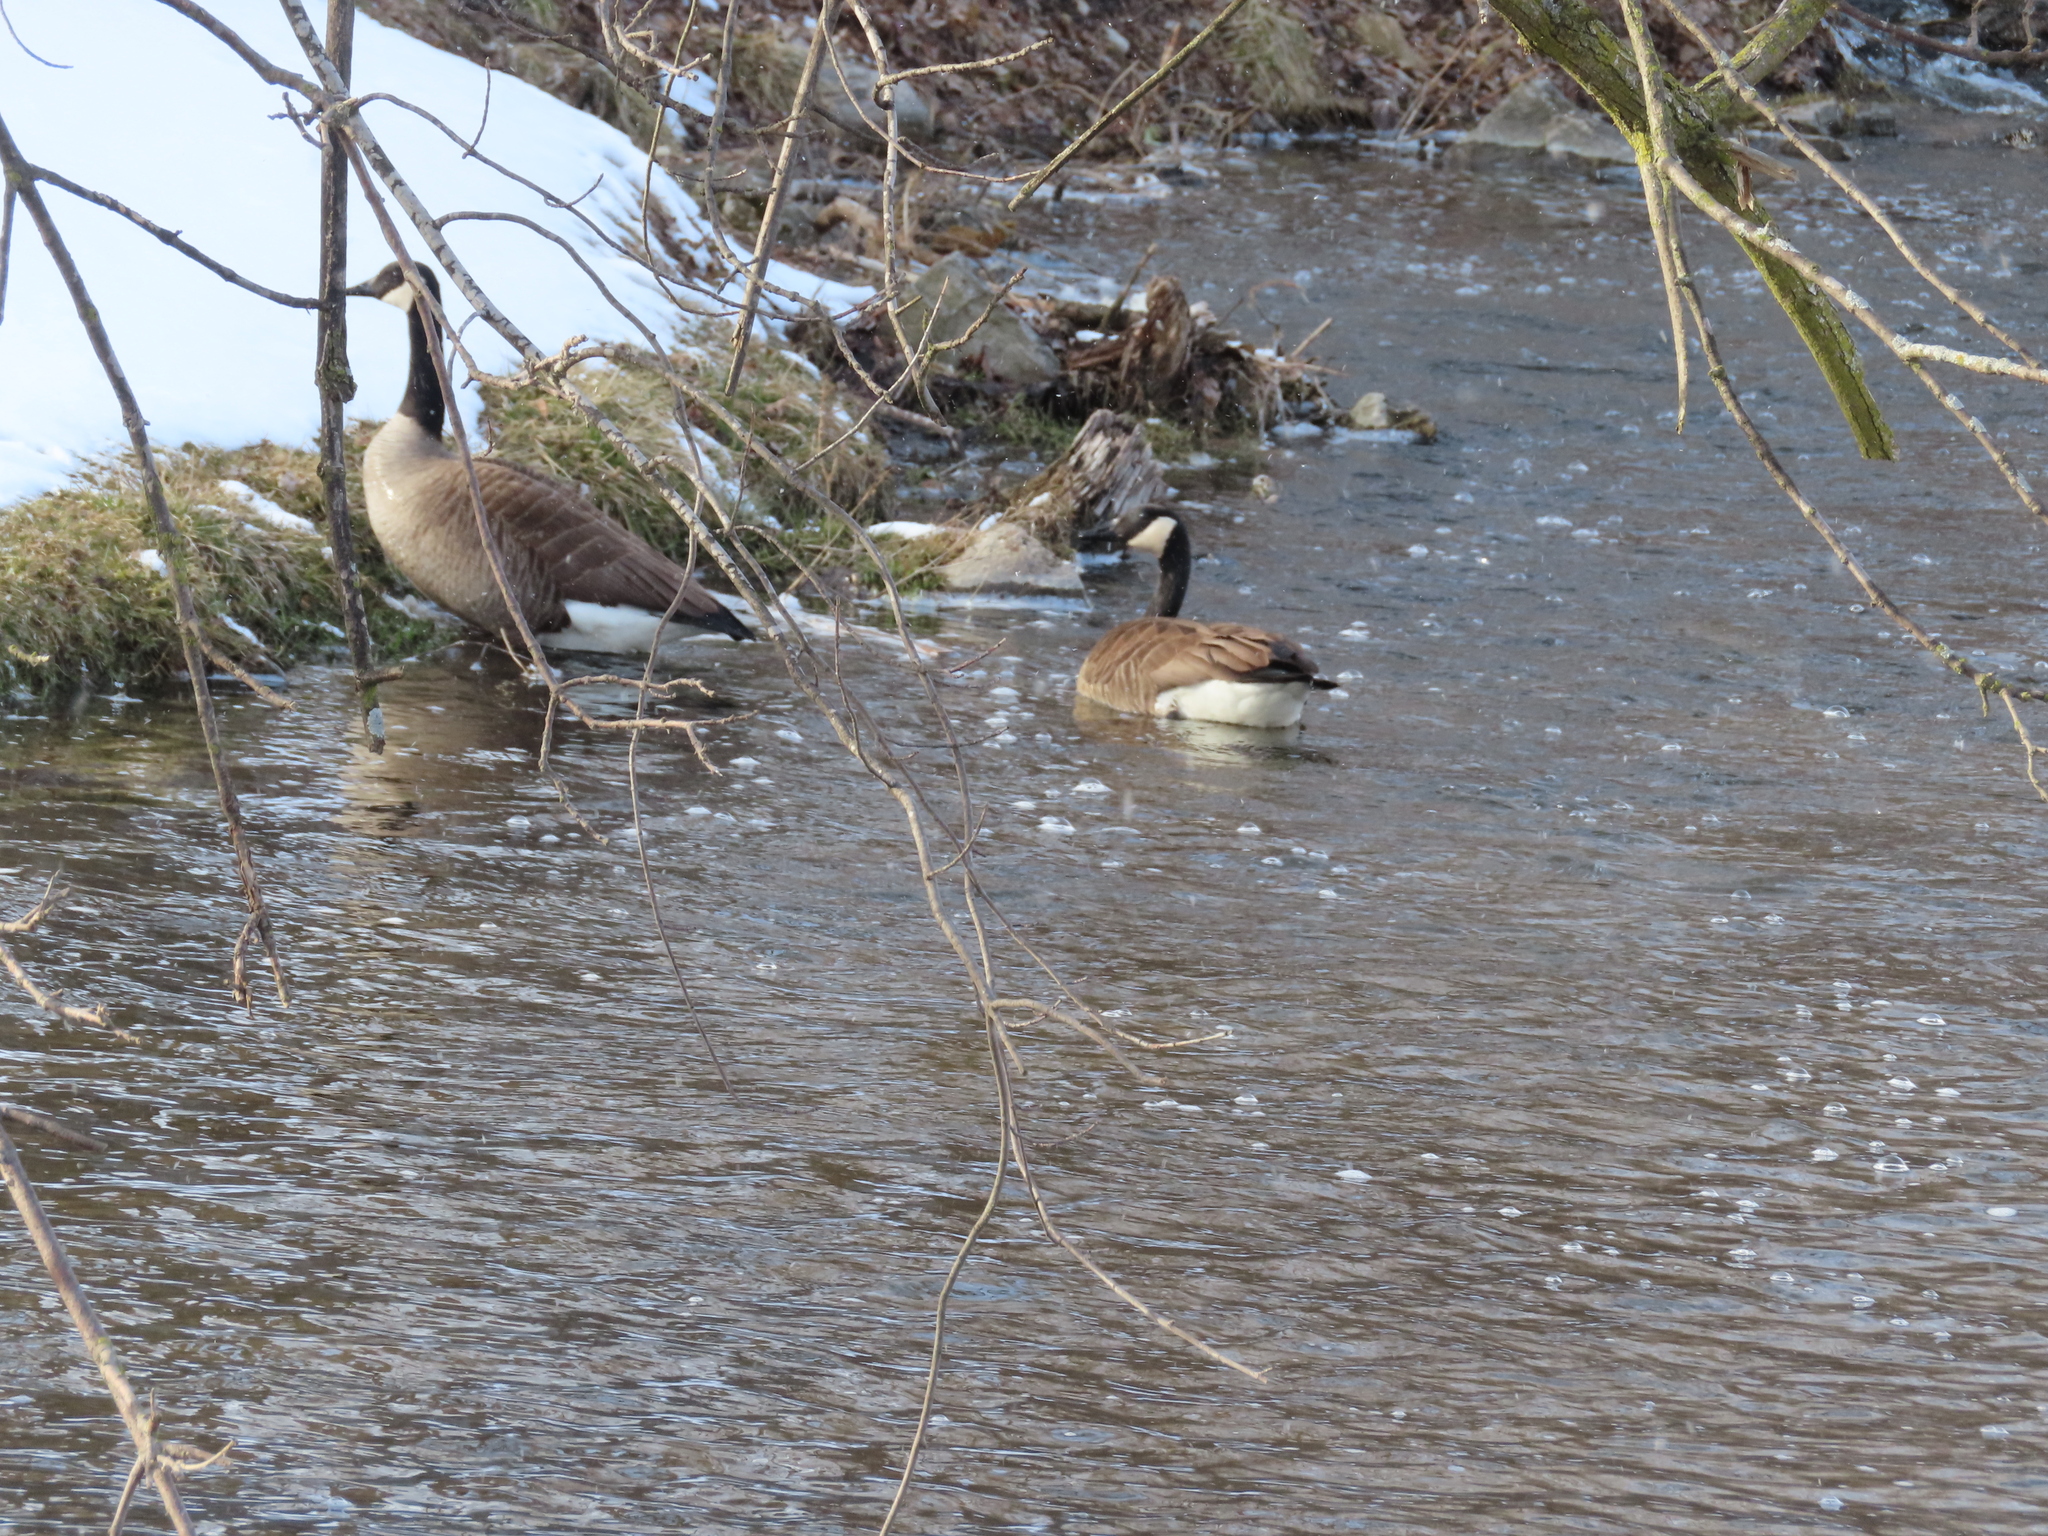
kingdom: Animalia
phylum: Chordata
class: Aves
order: Anseriformes
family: Anatidae
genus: Branta
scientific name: Branta canadensis
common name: Canada goose
